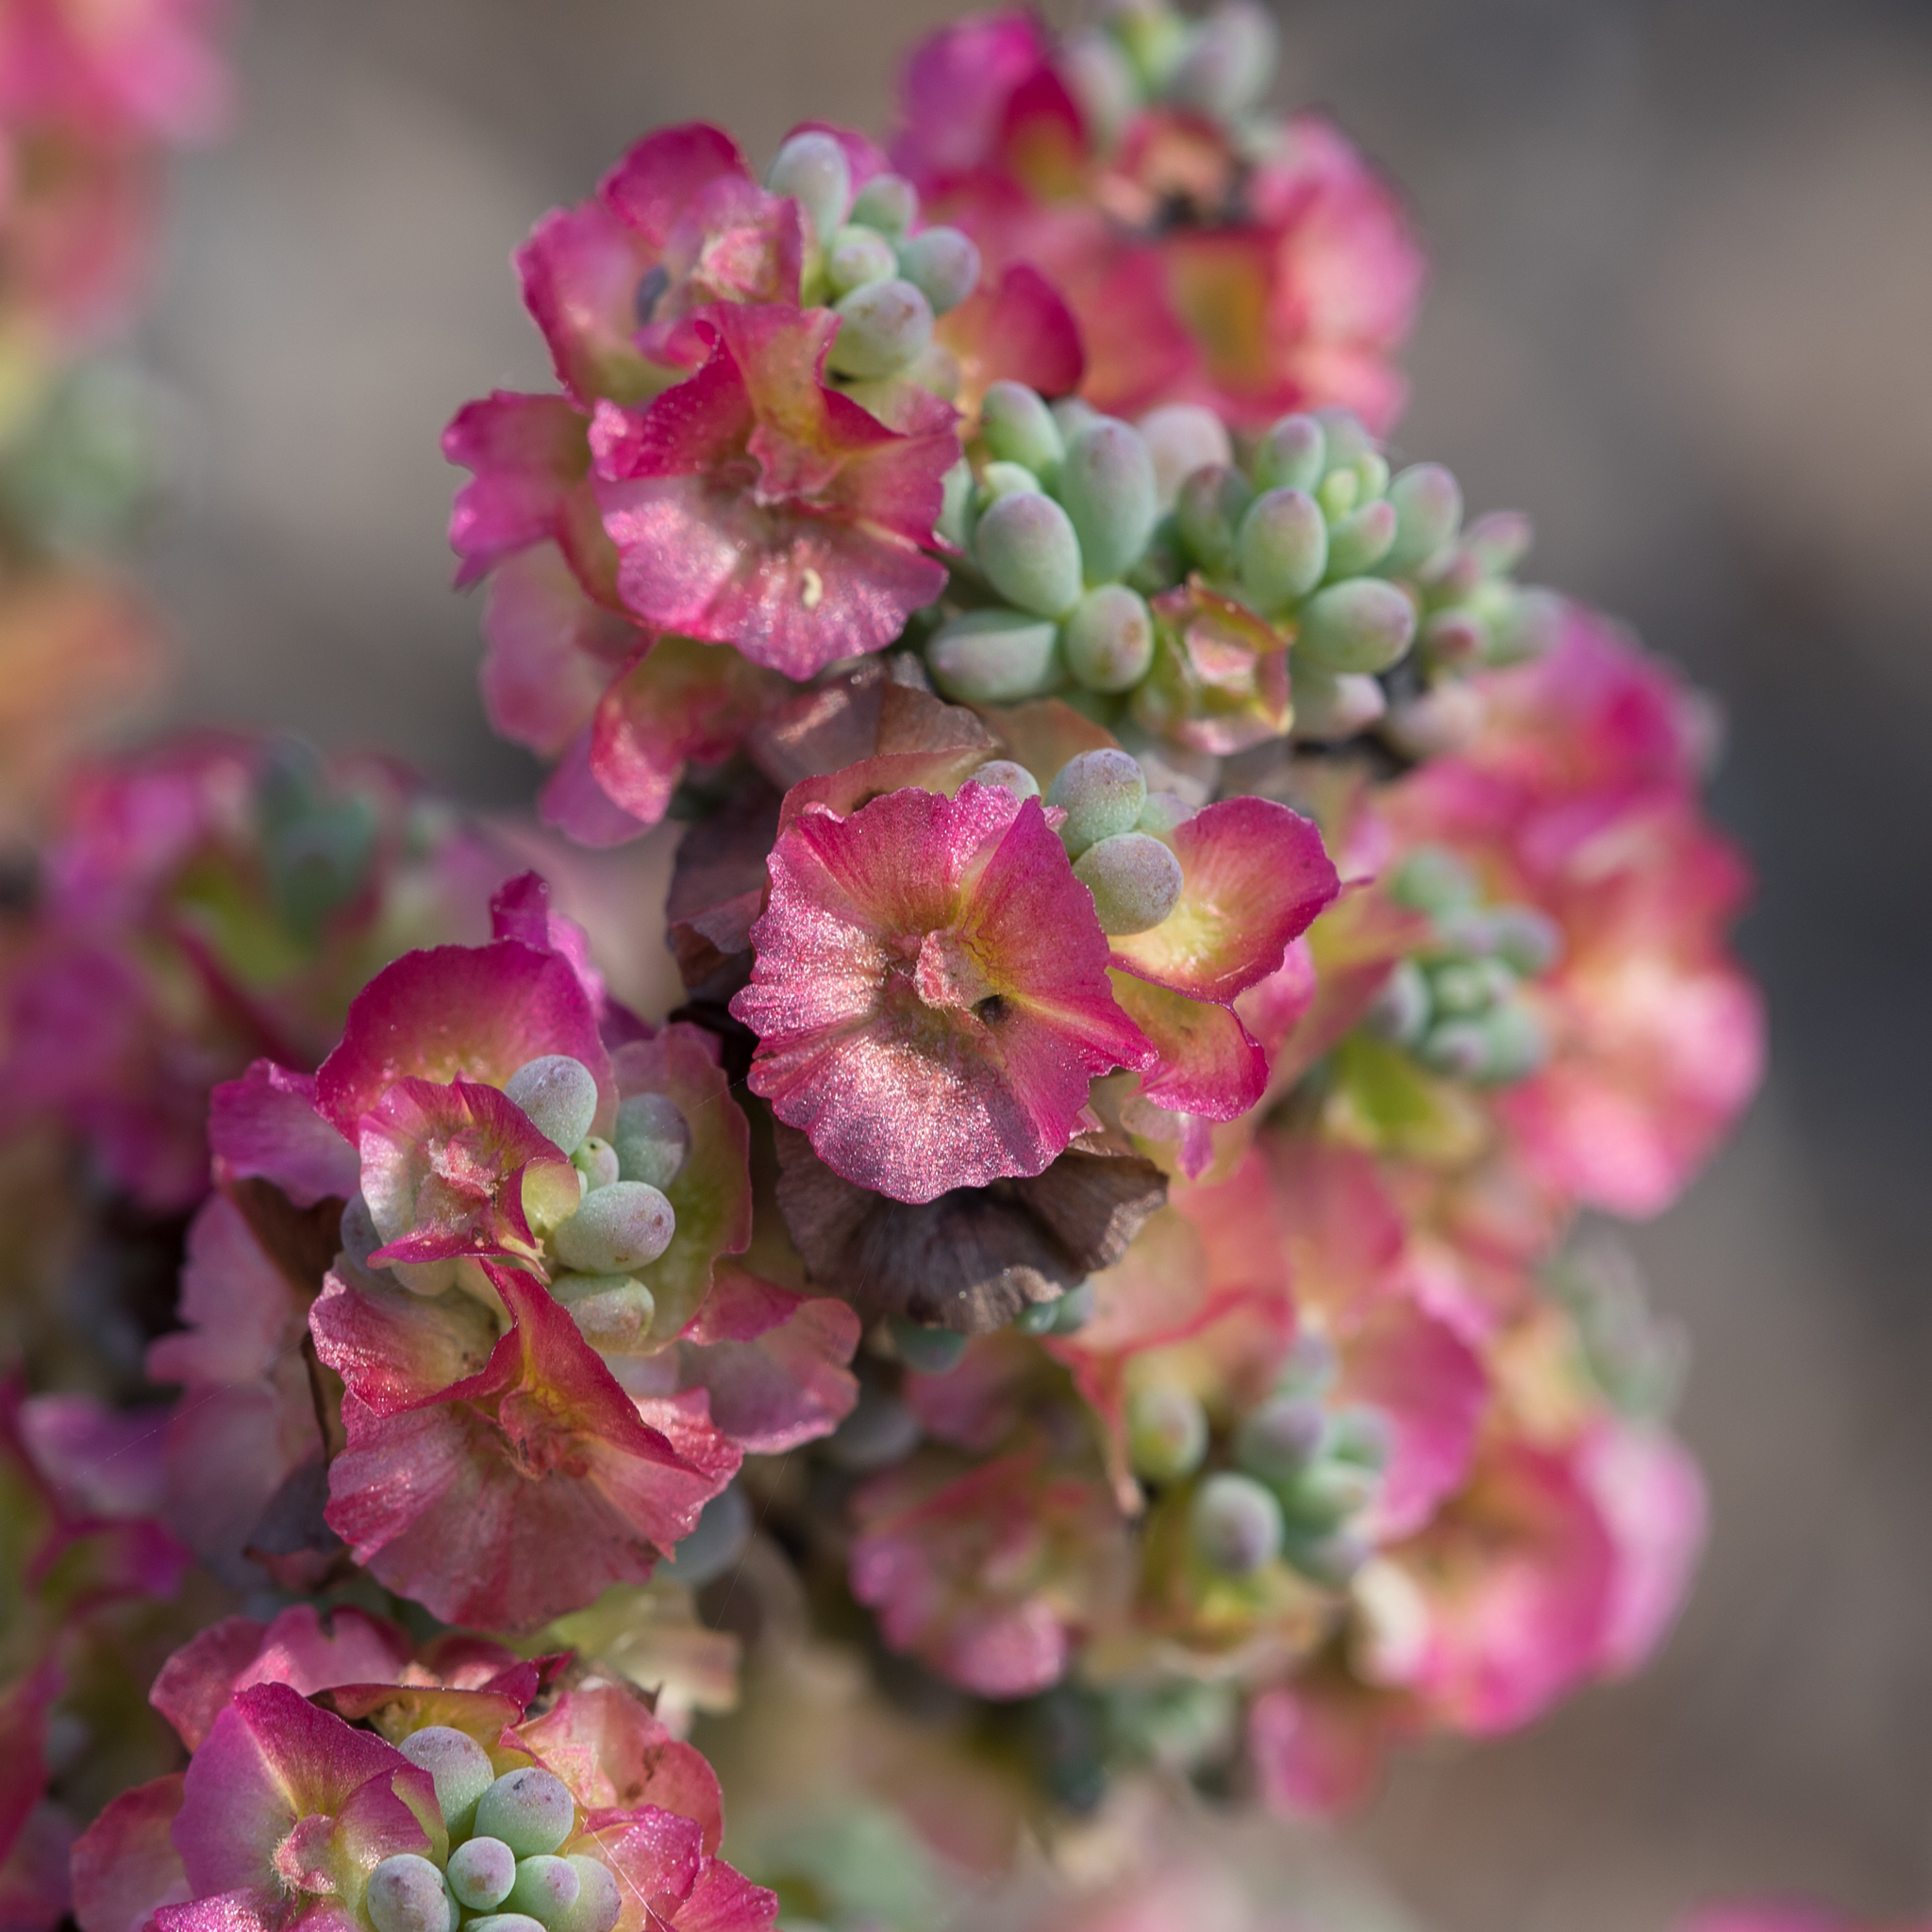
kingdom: Plantae
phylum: Tracheophyta
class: Magnoliopsida
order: Caryophyllales
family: Amaranthaceae
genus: Maireana
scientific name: Maireana erioclada
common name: Rosy bluebush
